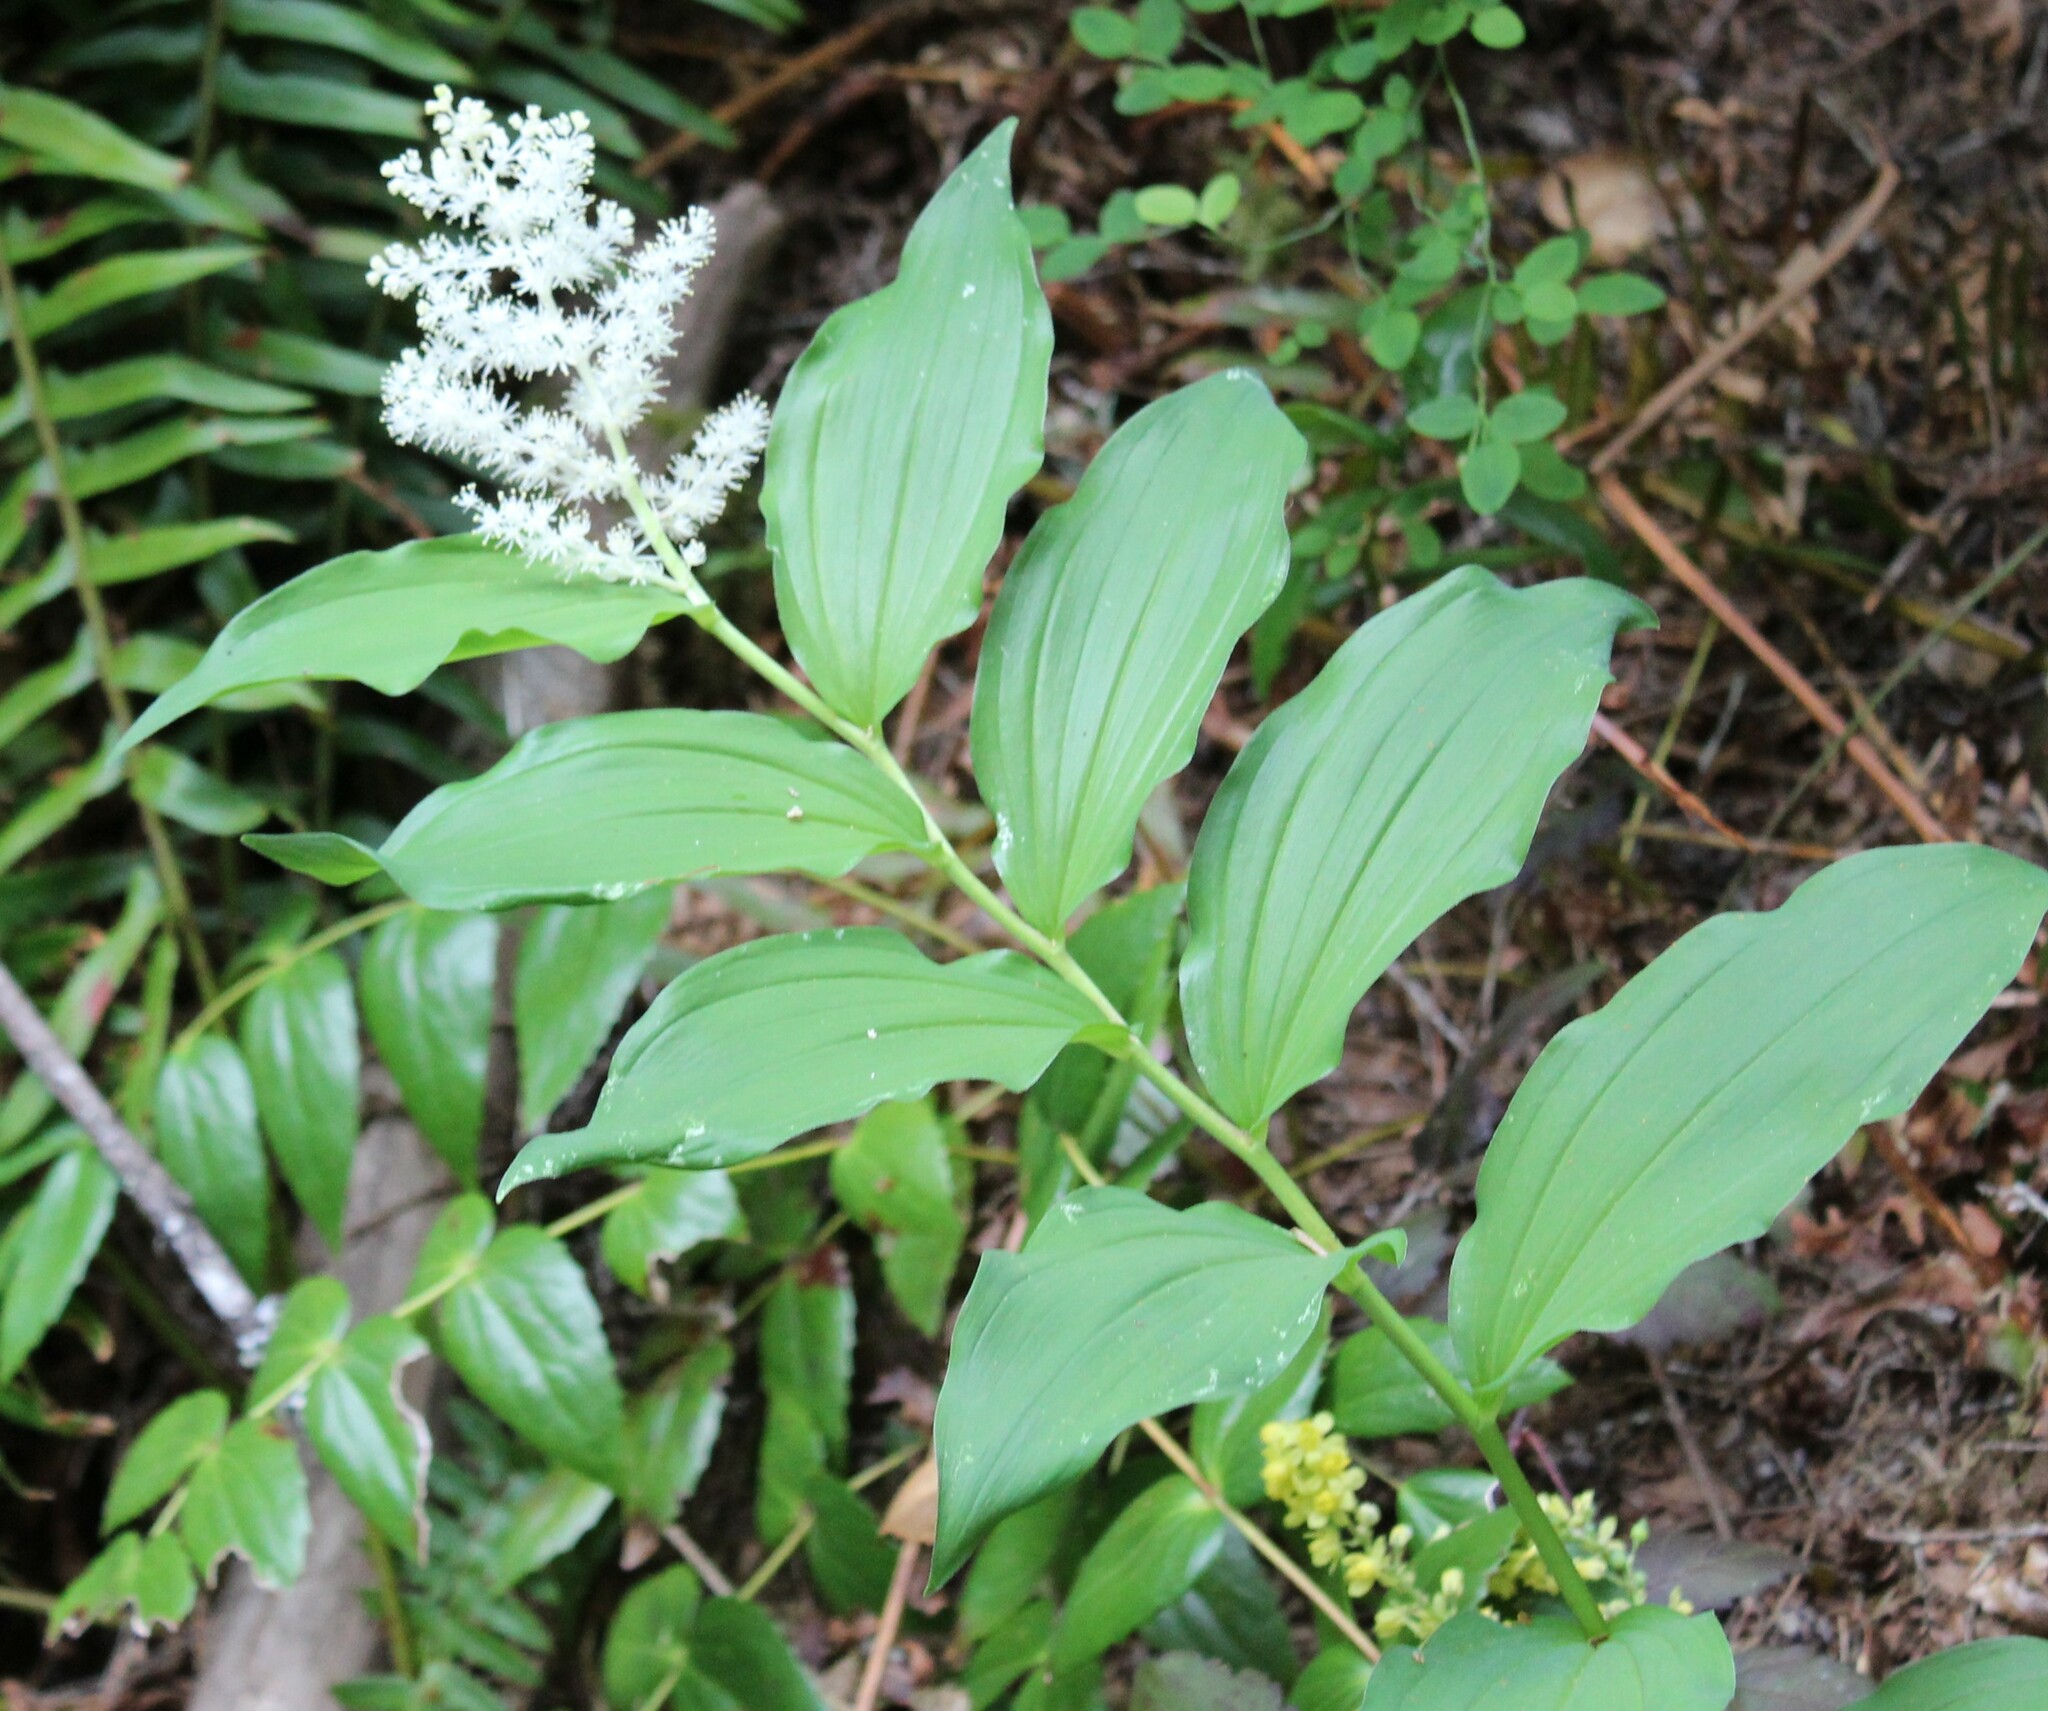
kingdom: Plantae
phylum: Tracheophyta
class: Liliopsida
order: Asparagales
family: Asparagaceae
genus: Maianthemum
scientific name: Maianthemum racemosum
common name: False spikenard
